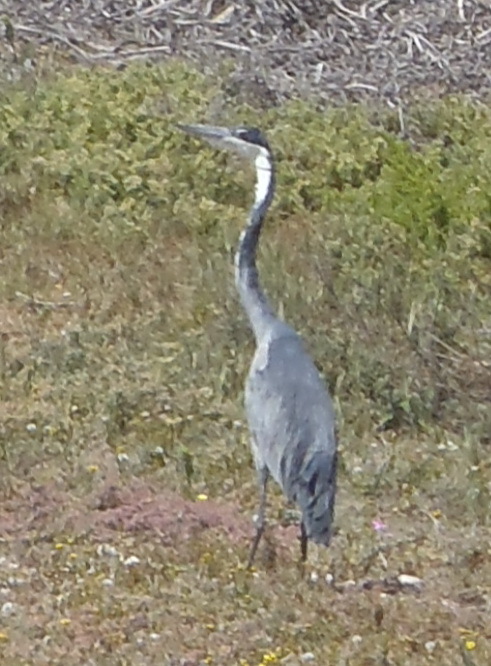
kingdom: Animalia
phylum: Chordata
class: Aves
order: Pelecaniformes
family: Ardeidae
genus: Ardea
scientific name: Ardea melanocephala
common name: Black-headed heron
